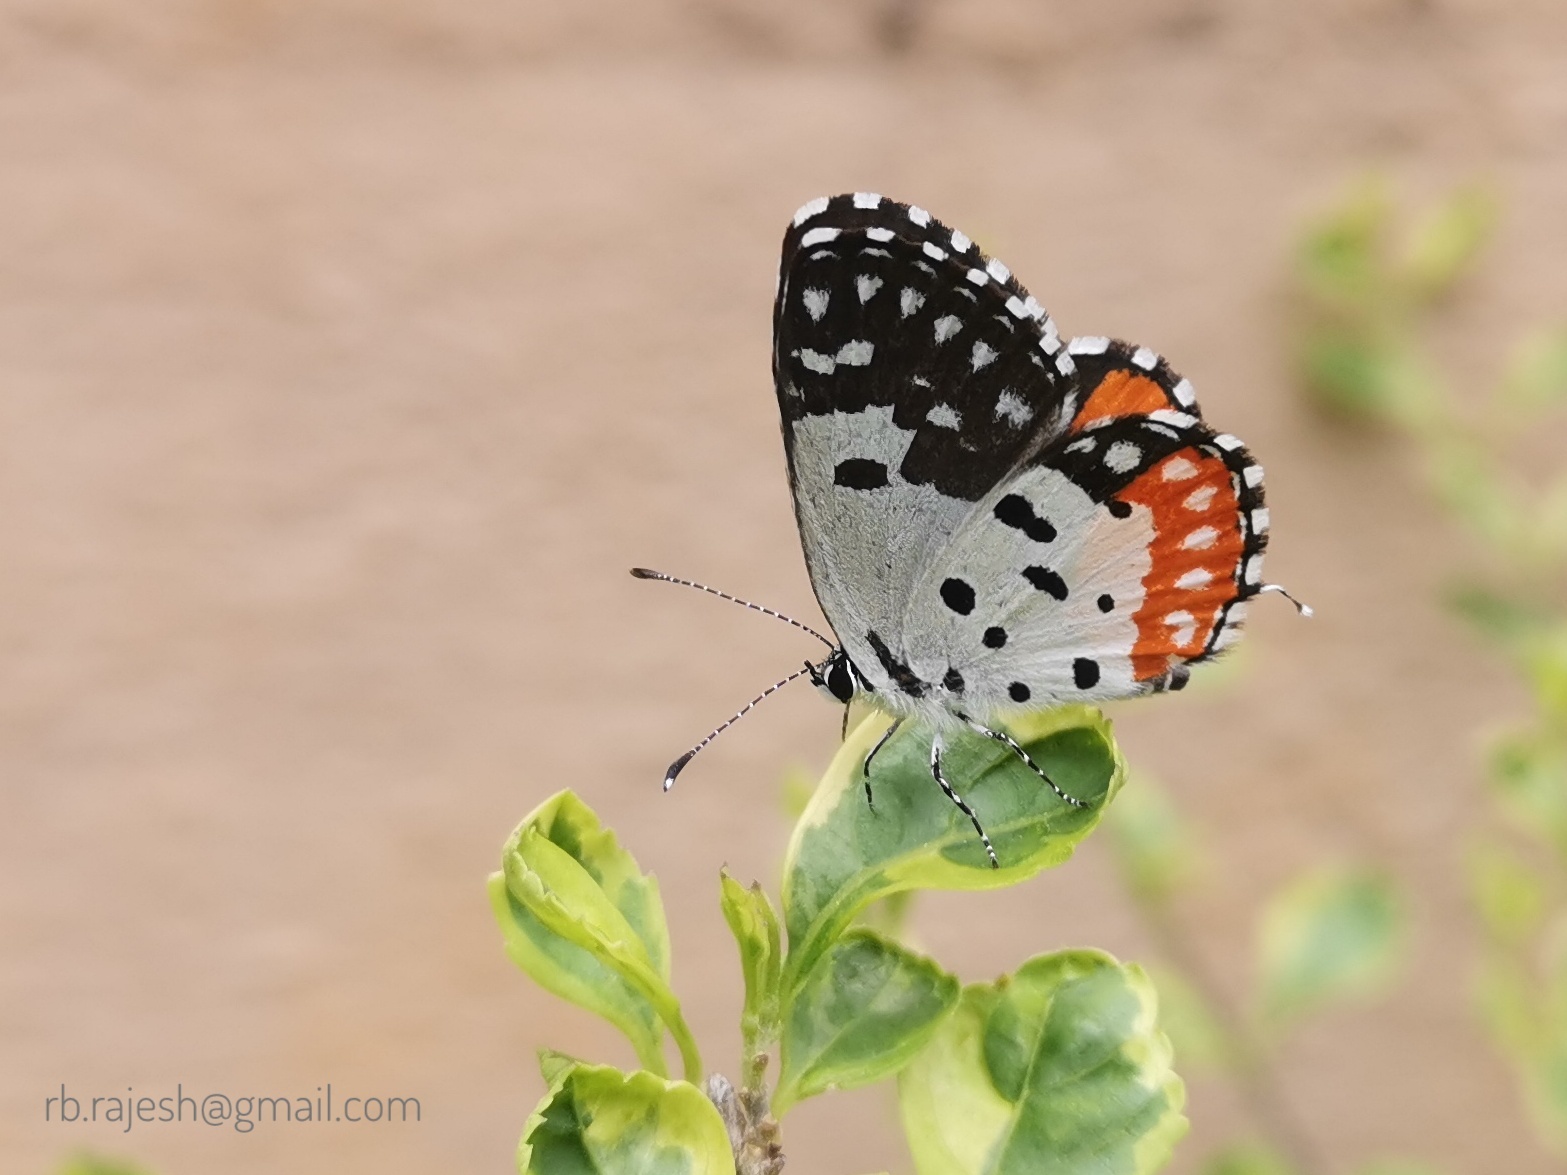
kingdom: Animalia
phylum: Arthropoda
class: Insecta
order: Lepidoptera
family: Lycaenidae
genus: Talicada
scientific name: Talicada nyseus
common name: Red pierrot
